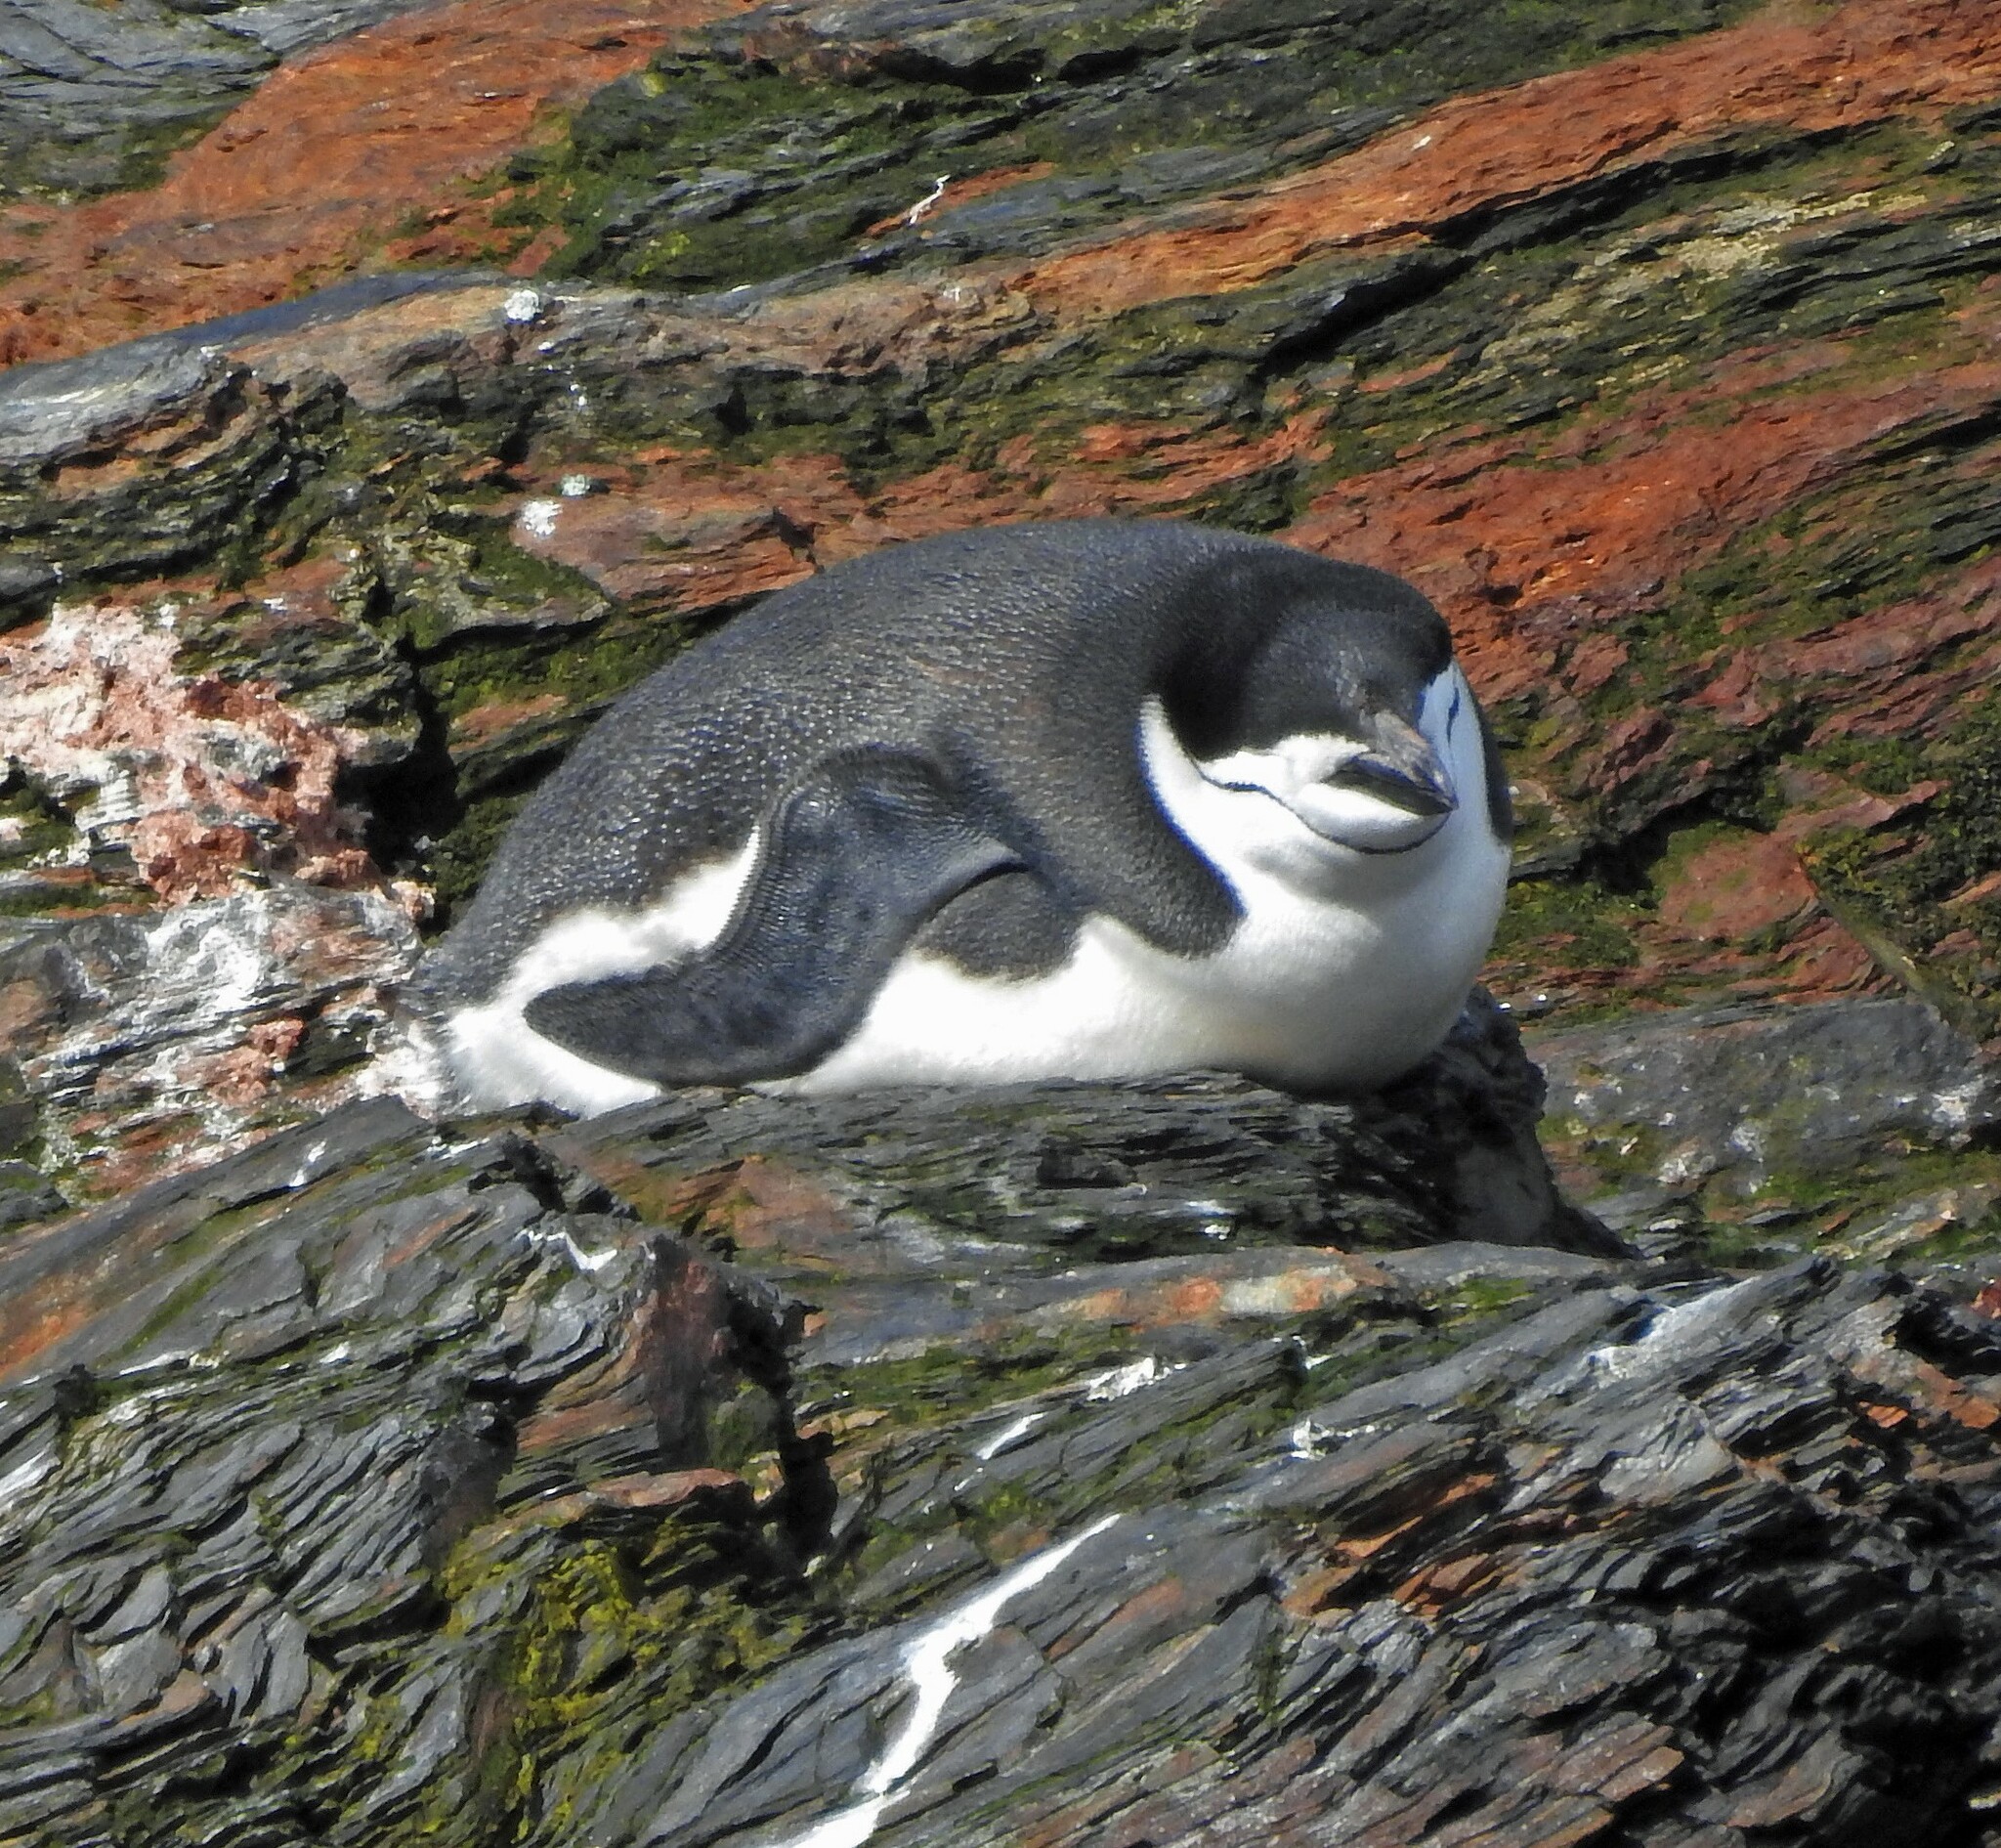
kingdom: Animalia
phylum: Chordata
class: Aves
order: Sphenisciformes
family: Spheniscidae
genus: Pygoscelis
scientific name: Pygoscelis antarcticus
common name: Chinstrap penguin
